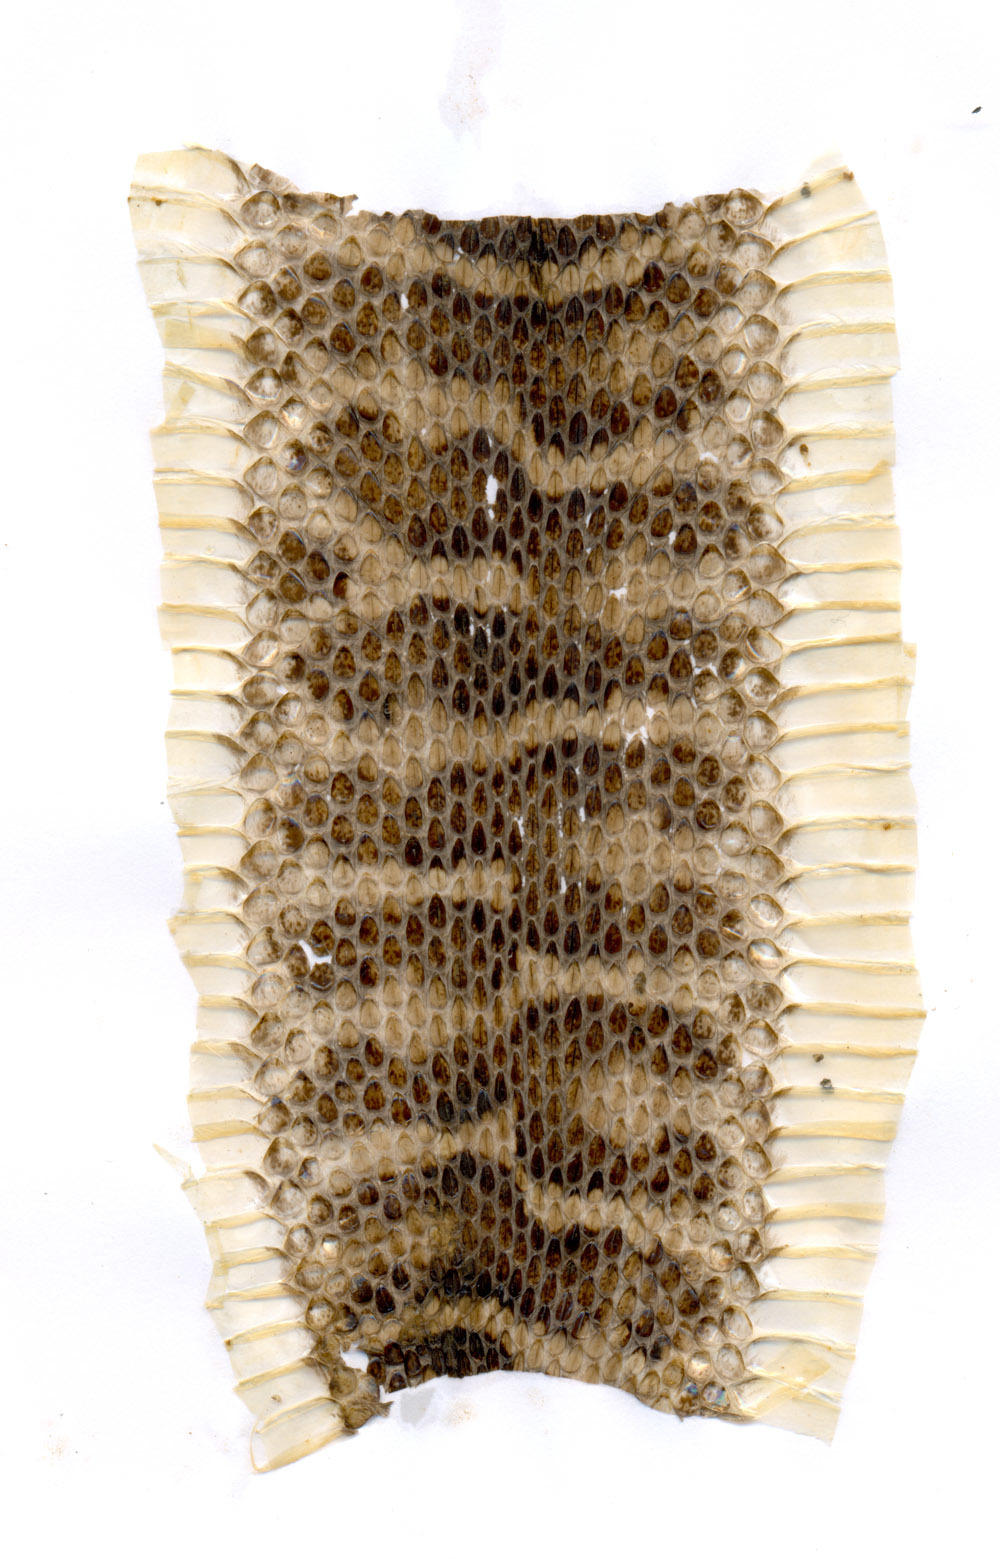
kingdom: Animalia
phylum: Chordata
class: Squamata
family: Viperidae
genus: Gloydius
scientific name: Gloydius intermedius
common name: Central asian pit viper
